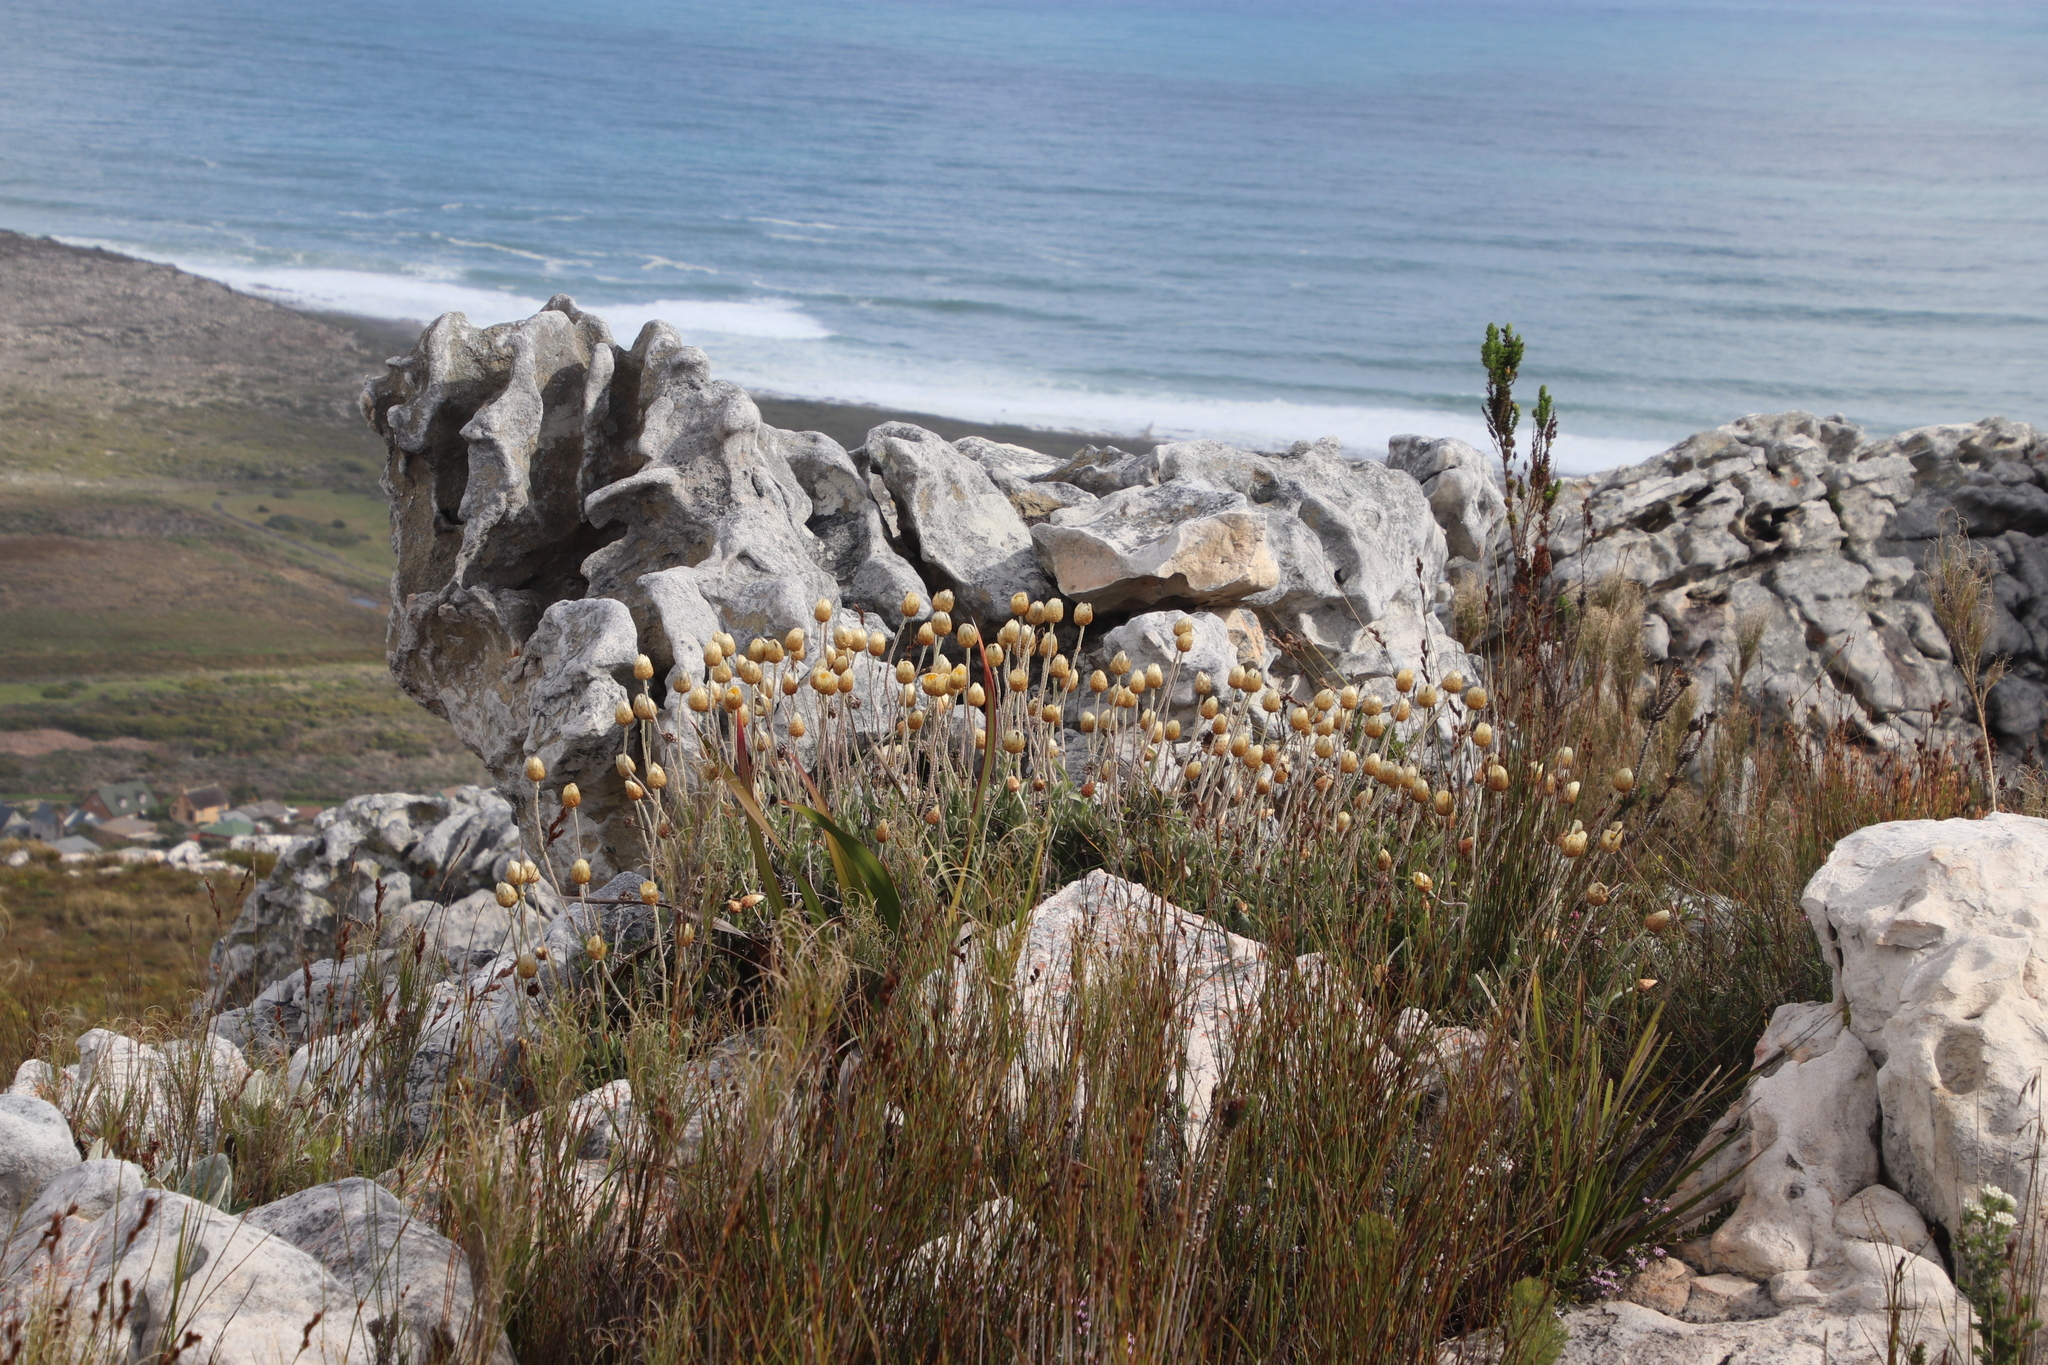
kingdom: Plantae
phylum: Tracheophyta
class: Magnoliopsida
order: Asterales
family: Asteraceae
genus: Syncarpha
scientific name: Syncarpha speciosissima
